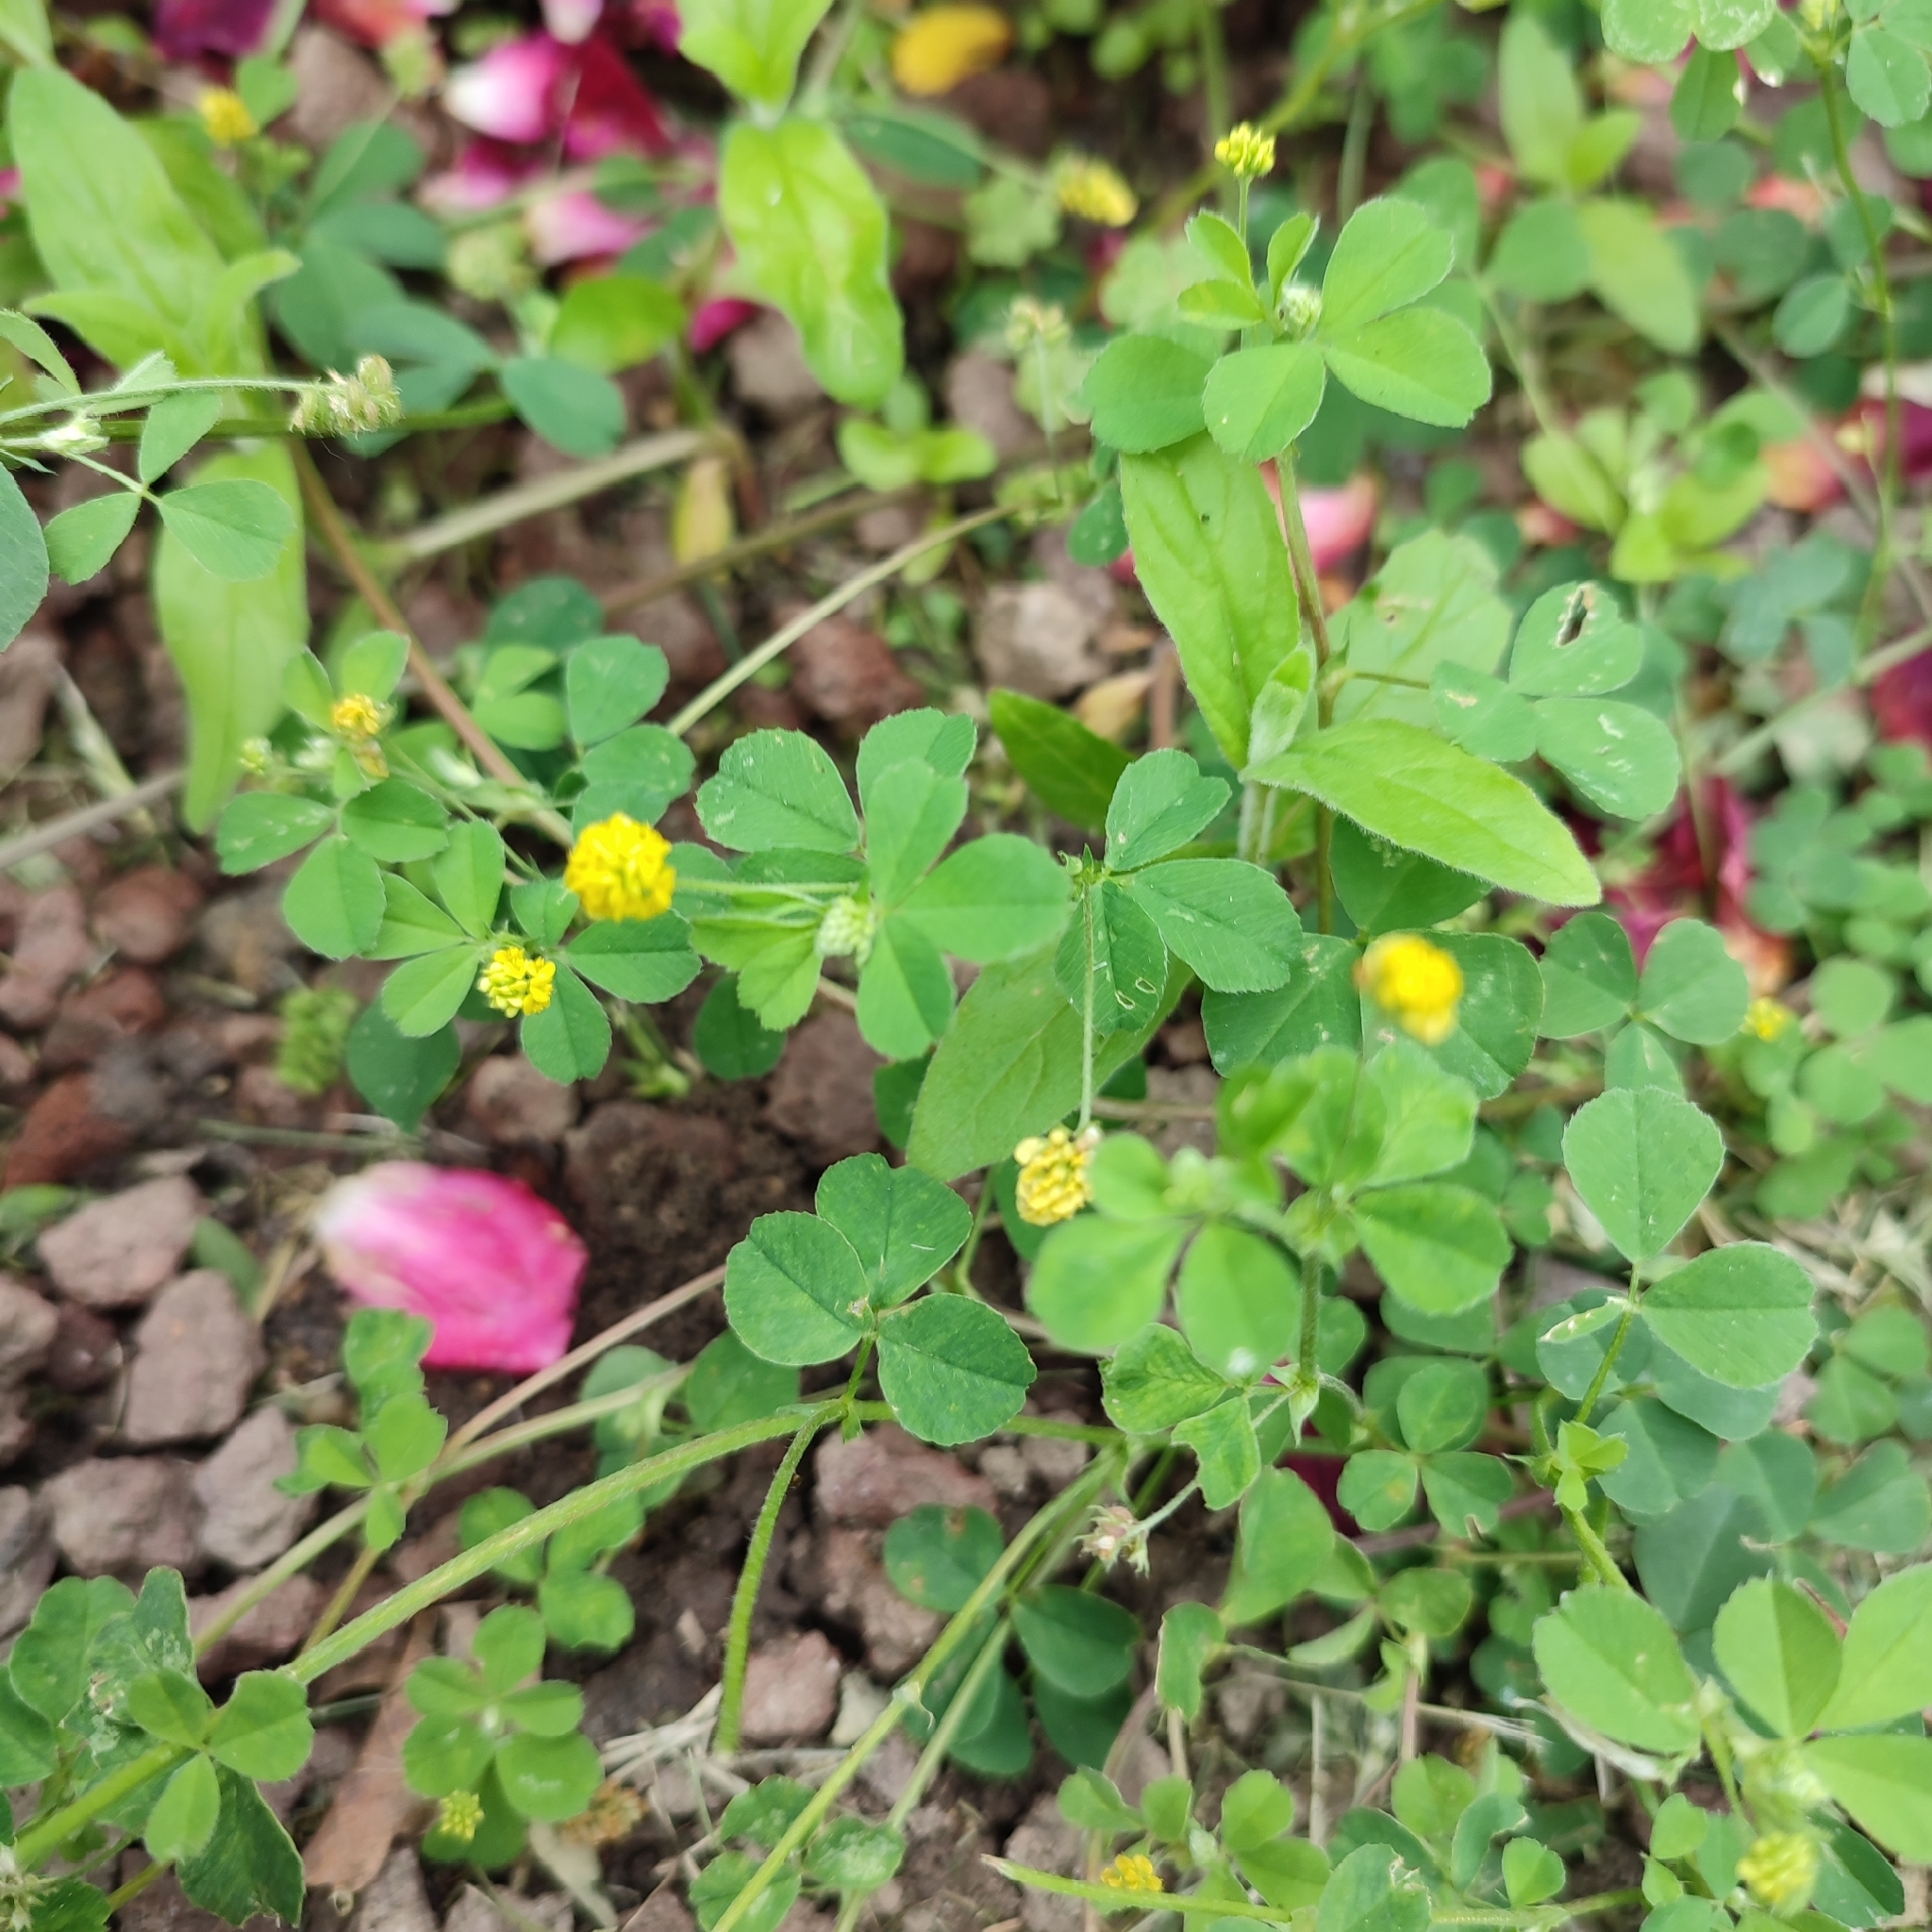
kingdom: Plantae
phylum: Tracheophyta
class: Magnoliopsida
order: Fabales
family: Fabaceae
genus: Medicago
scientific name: Medicago lupulina
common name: Black medick
